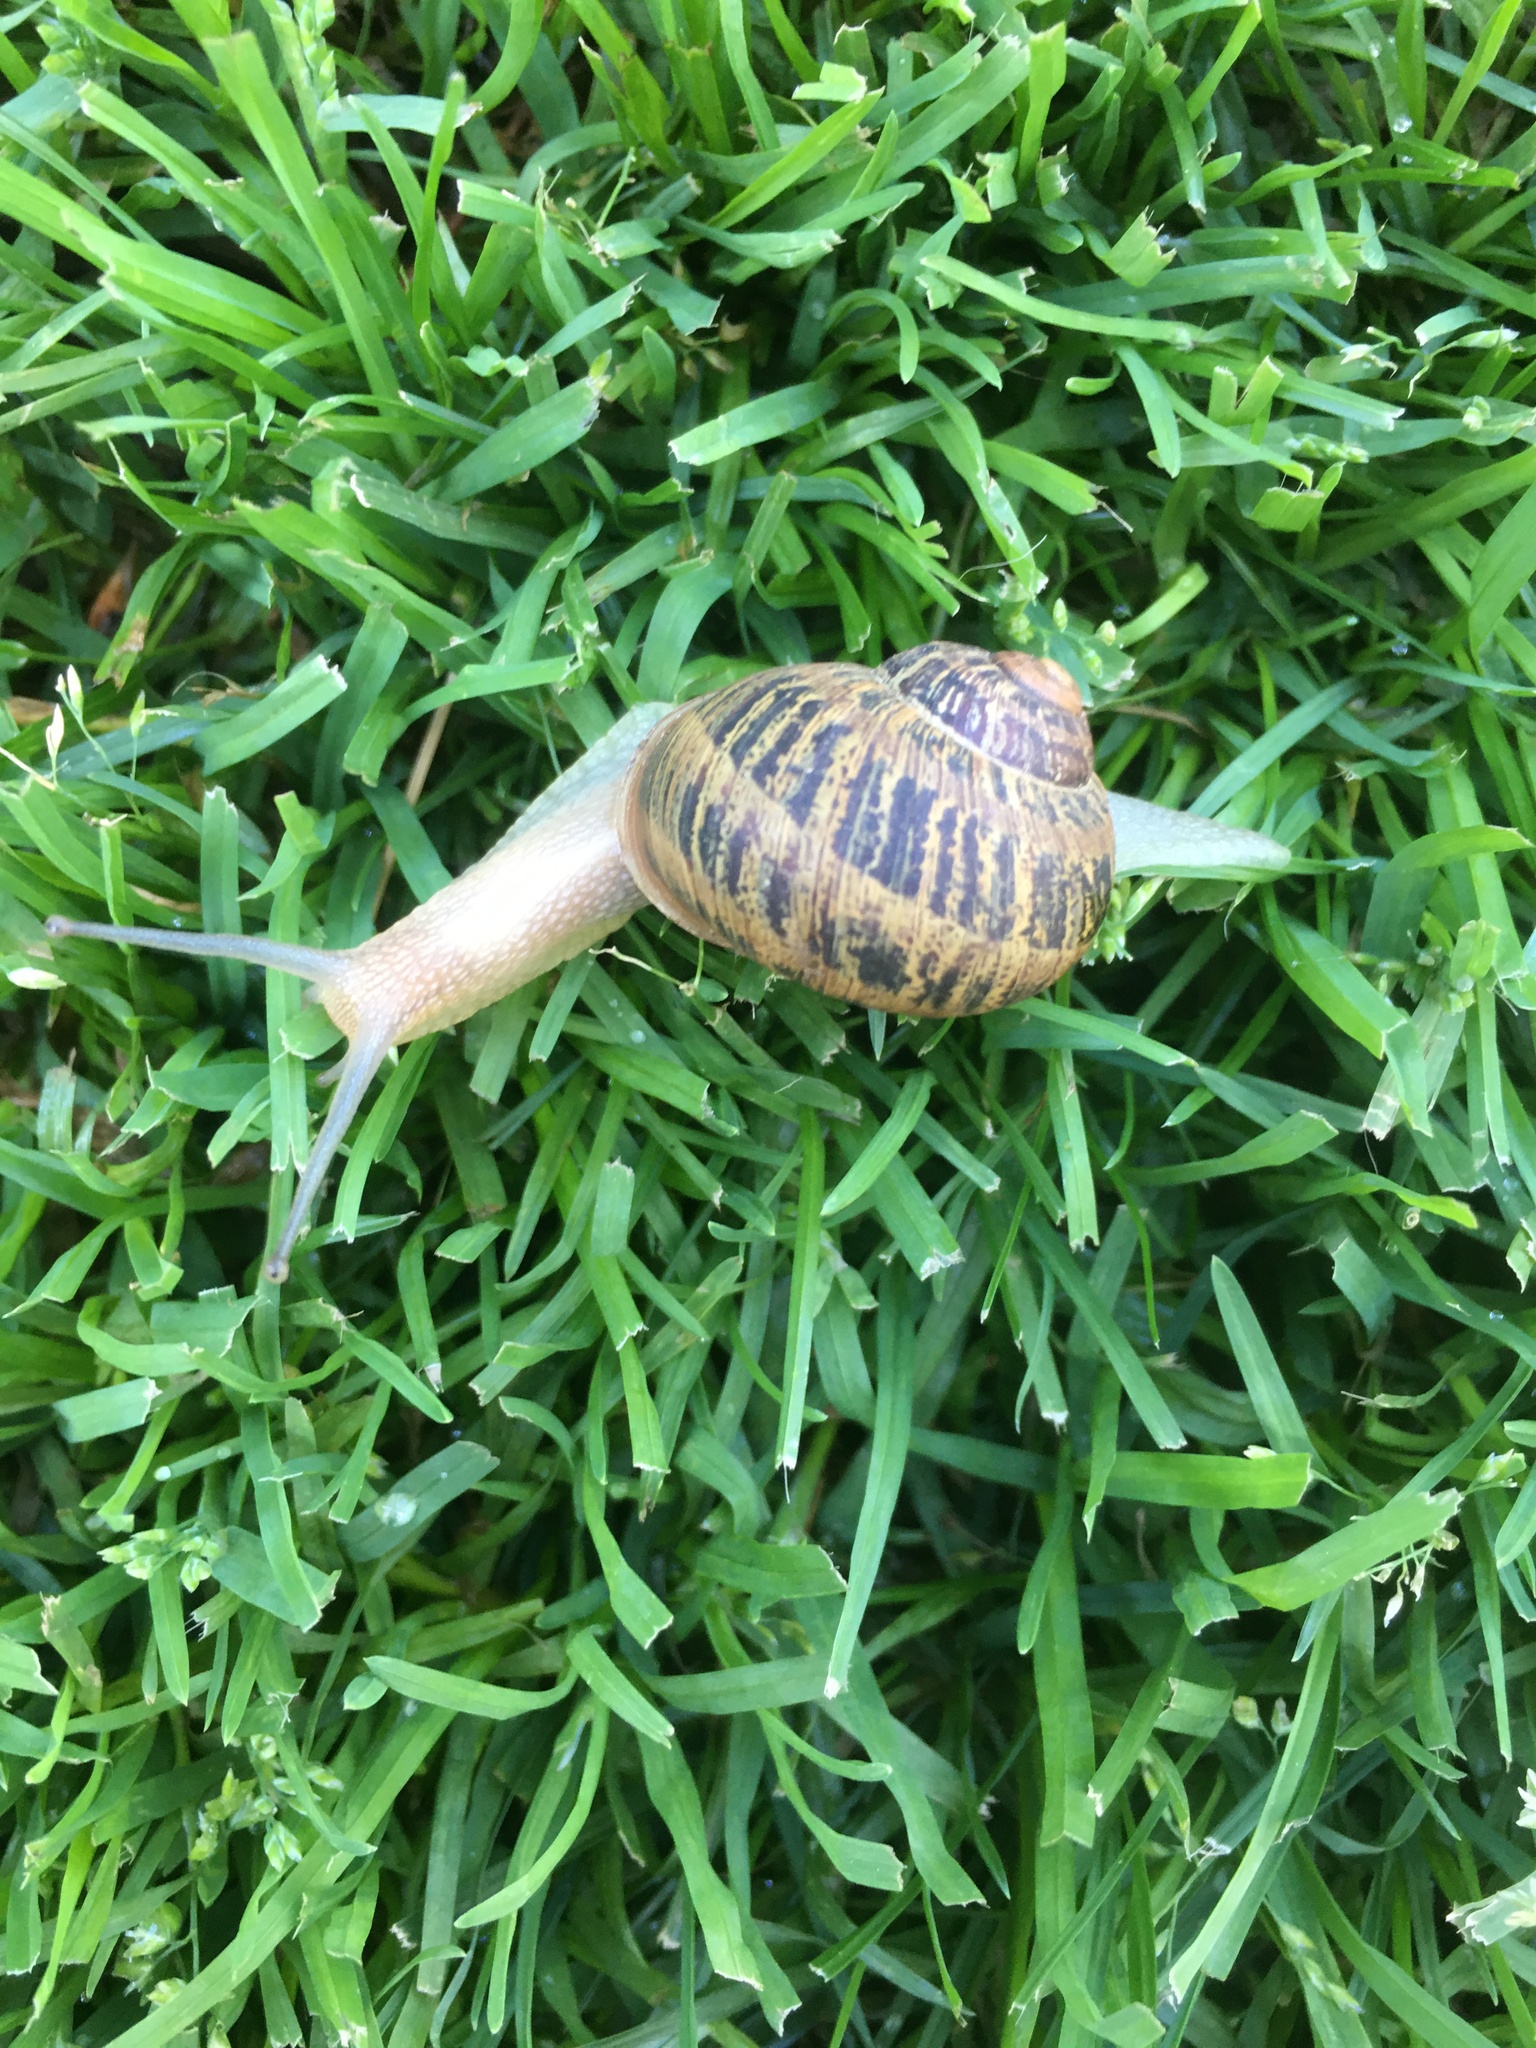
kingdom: Animalia
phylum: Mollusca
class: Gastropoda
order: Stylommatophora
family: Helicidae
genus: Cornu
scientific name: Cornu aspersum
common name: Brown garden snail
